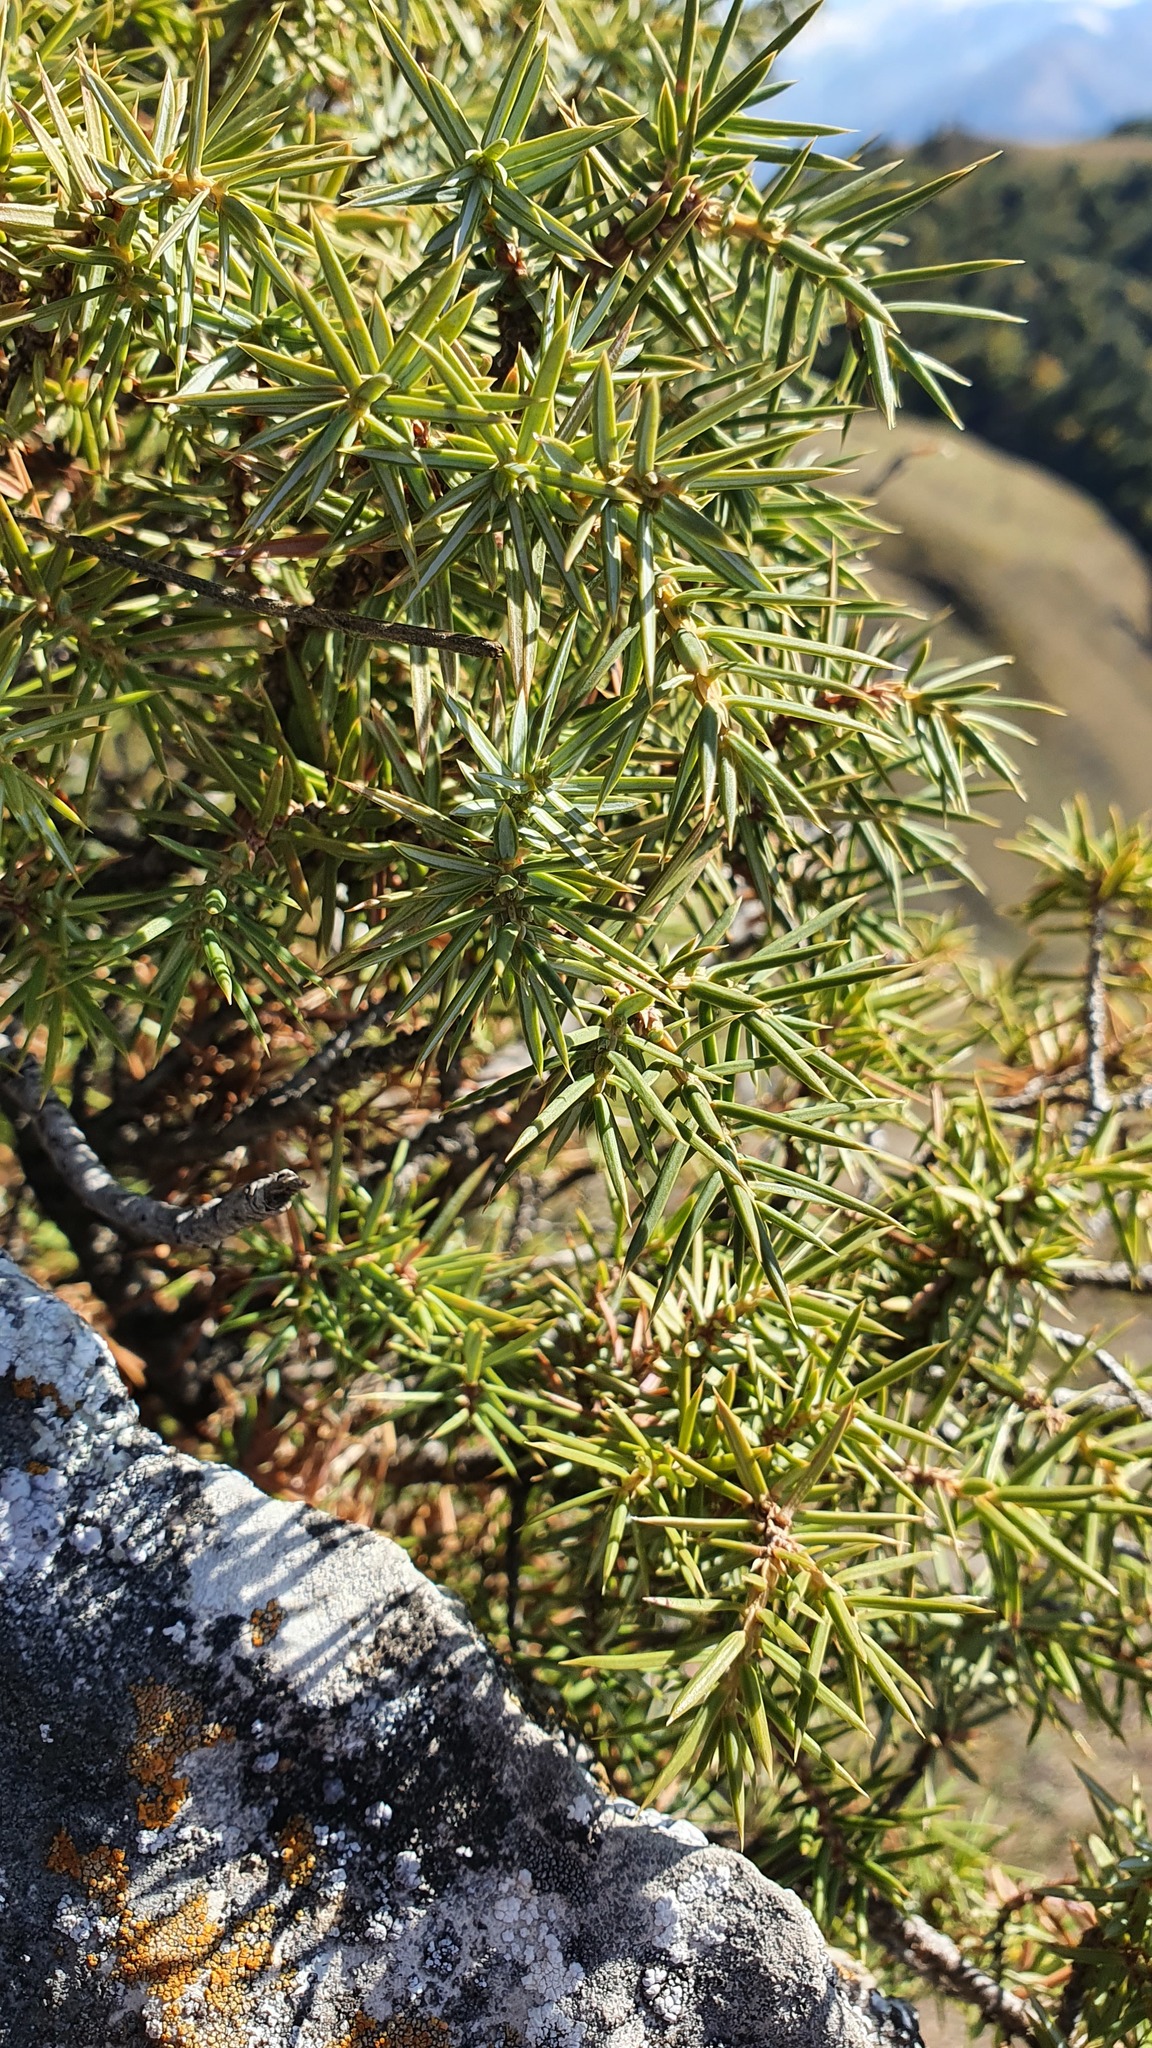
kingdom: Plantae
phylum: Tracheophyta
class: Pinopsida
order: Pinales
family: Cupressaceae
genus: Juniperus
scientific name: Juniperus communis
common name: Common juniper
